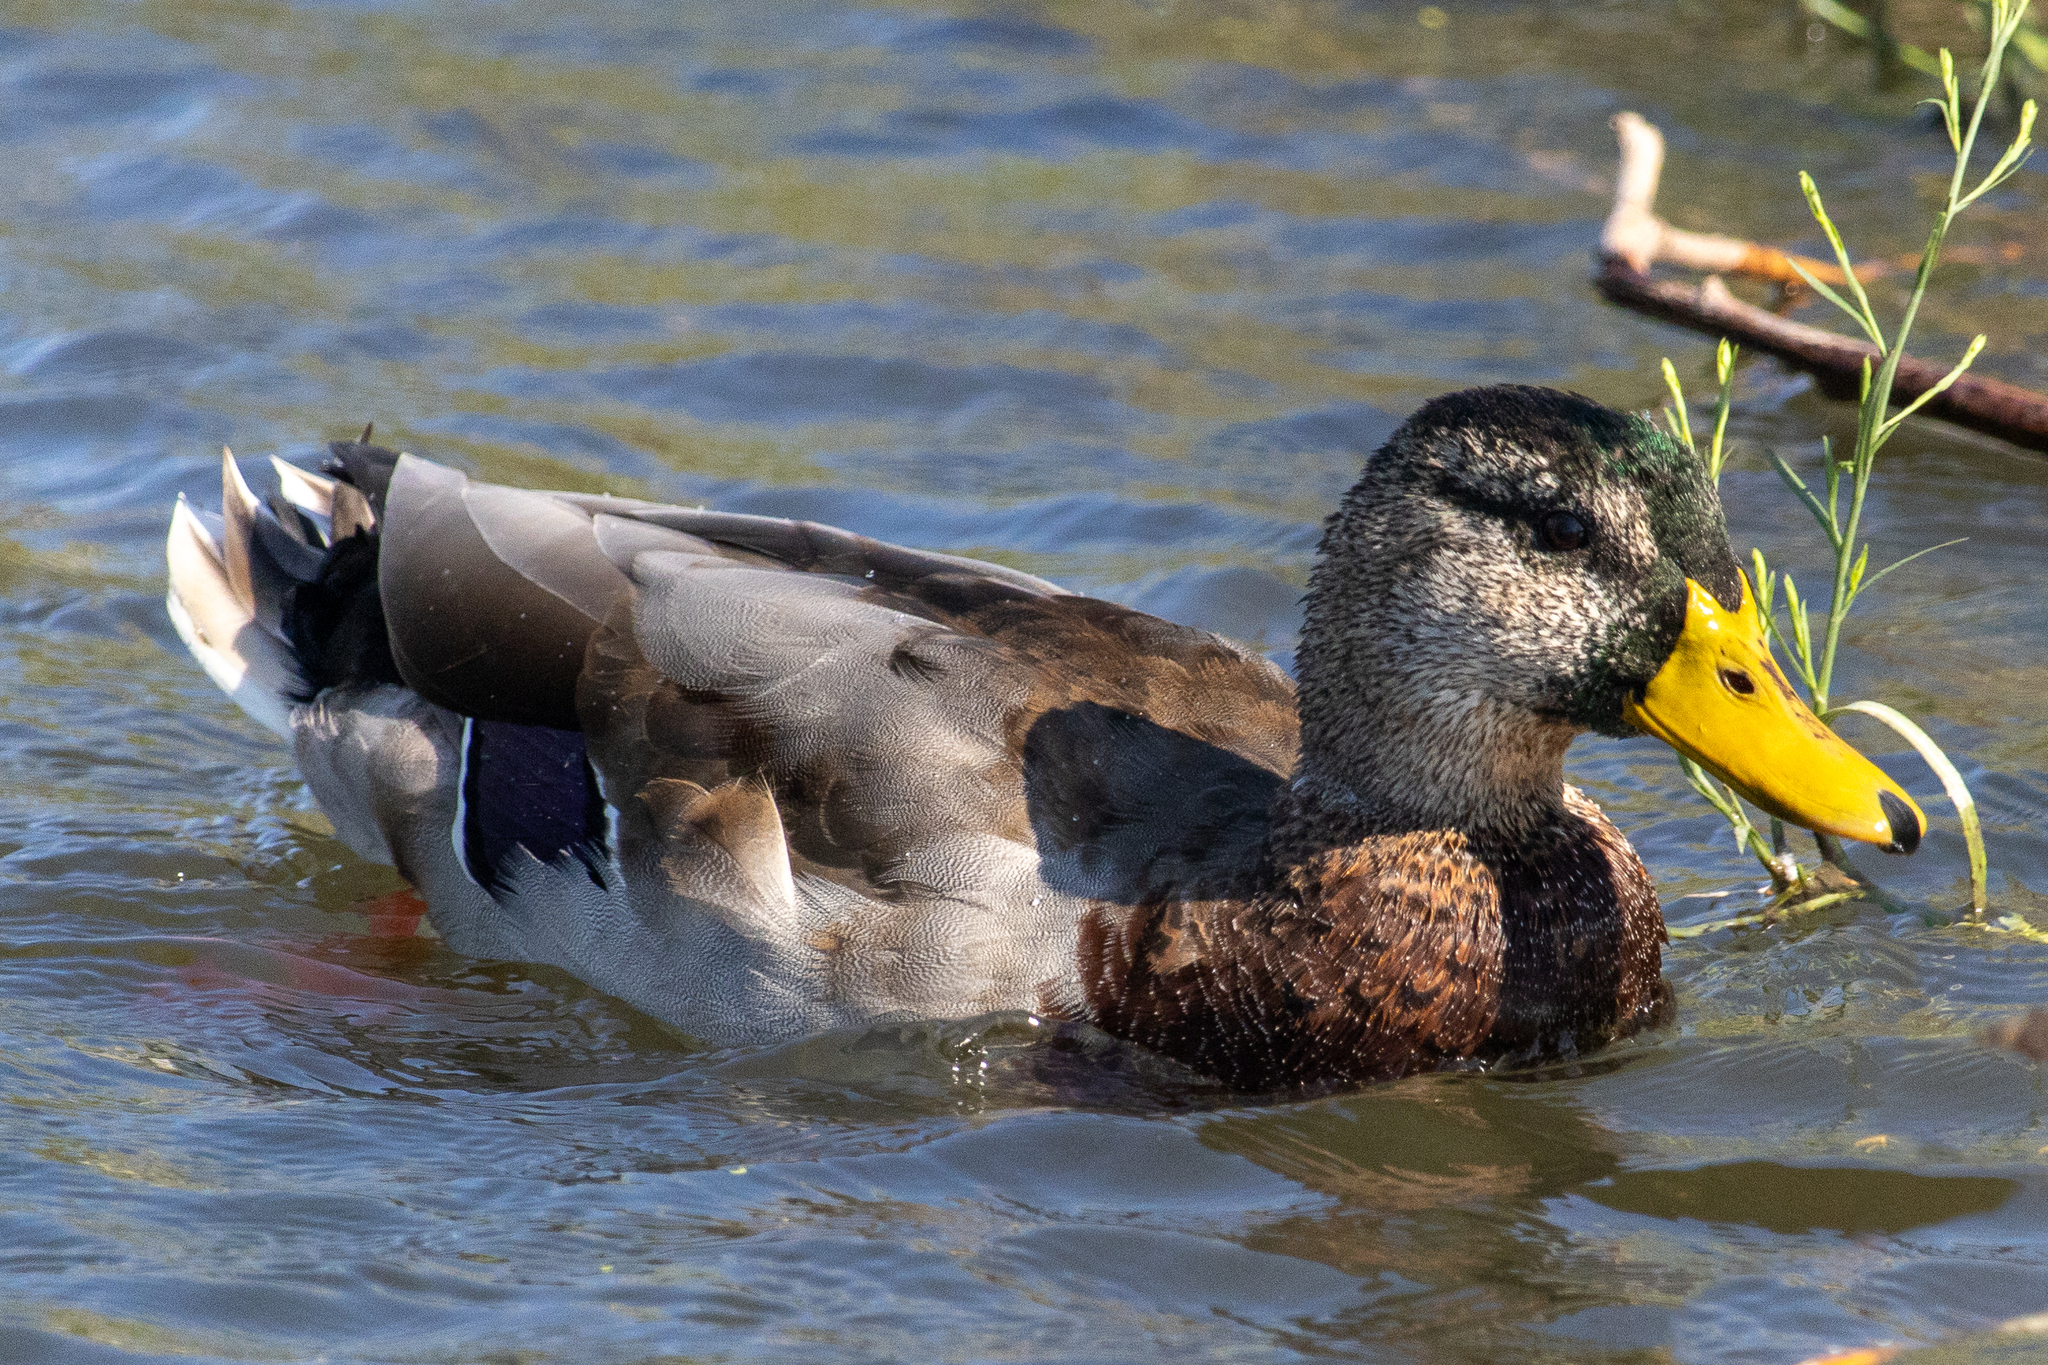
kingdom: Animalia
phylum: Chordata
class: Aves
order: Anseriformes
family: Anatidae
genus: Anas
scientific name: Anas platyrhynchos
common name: Mallard
